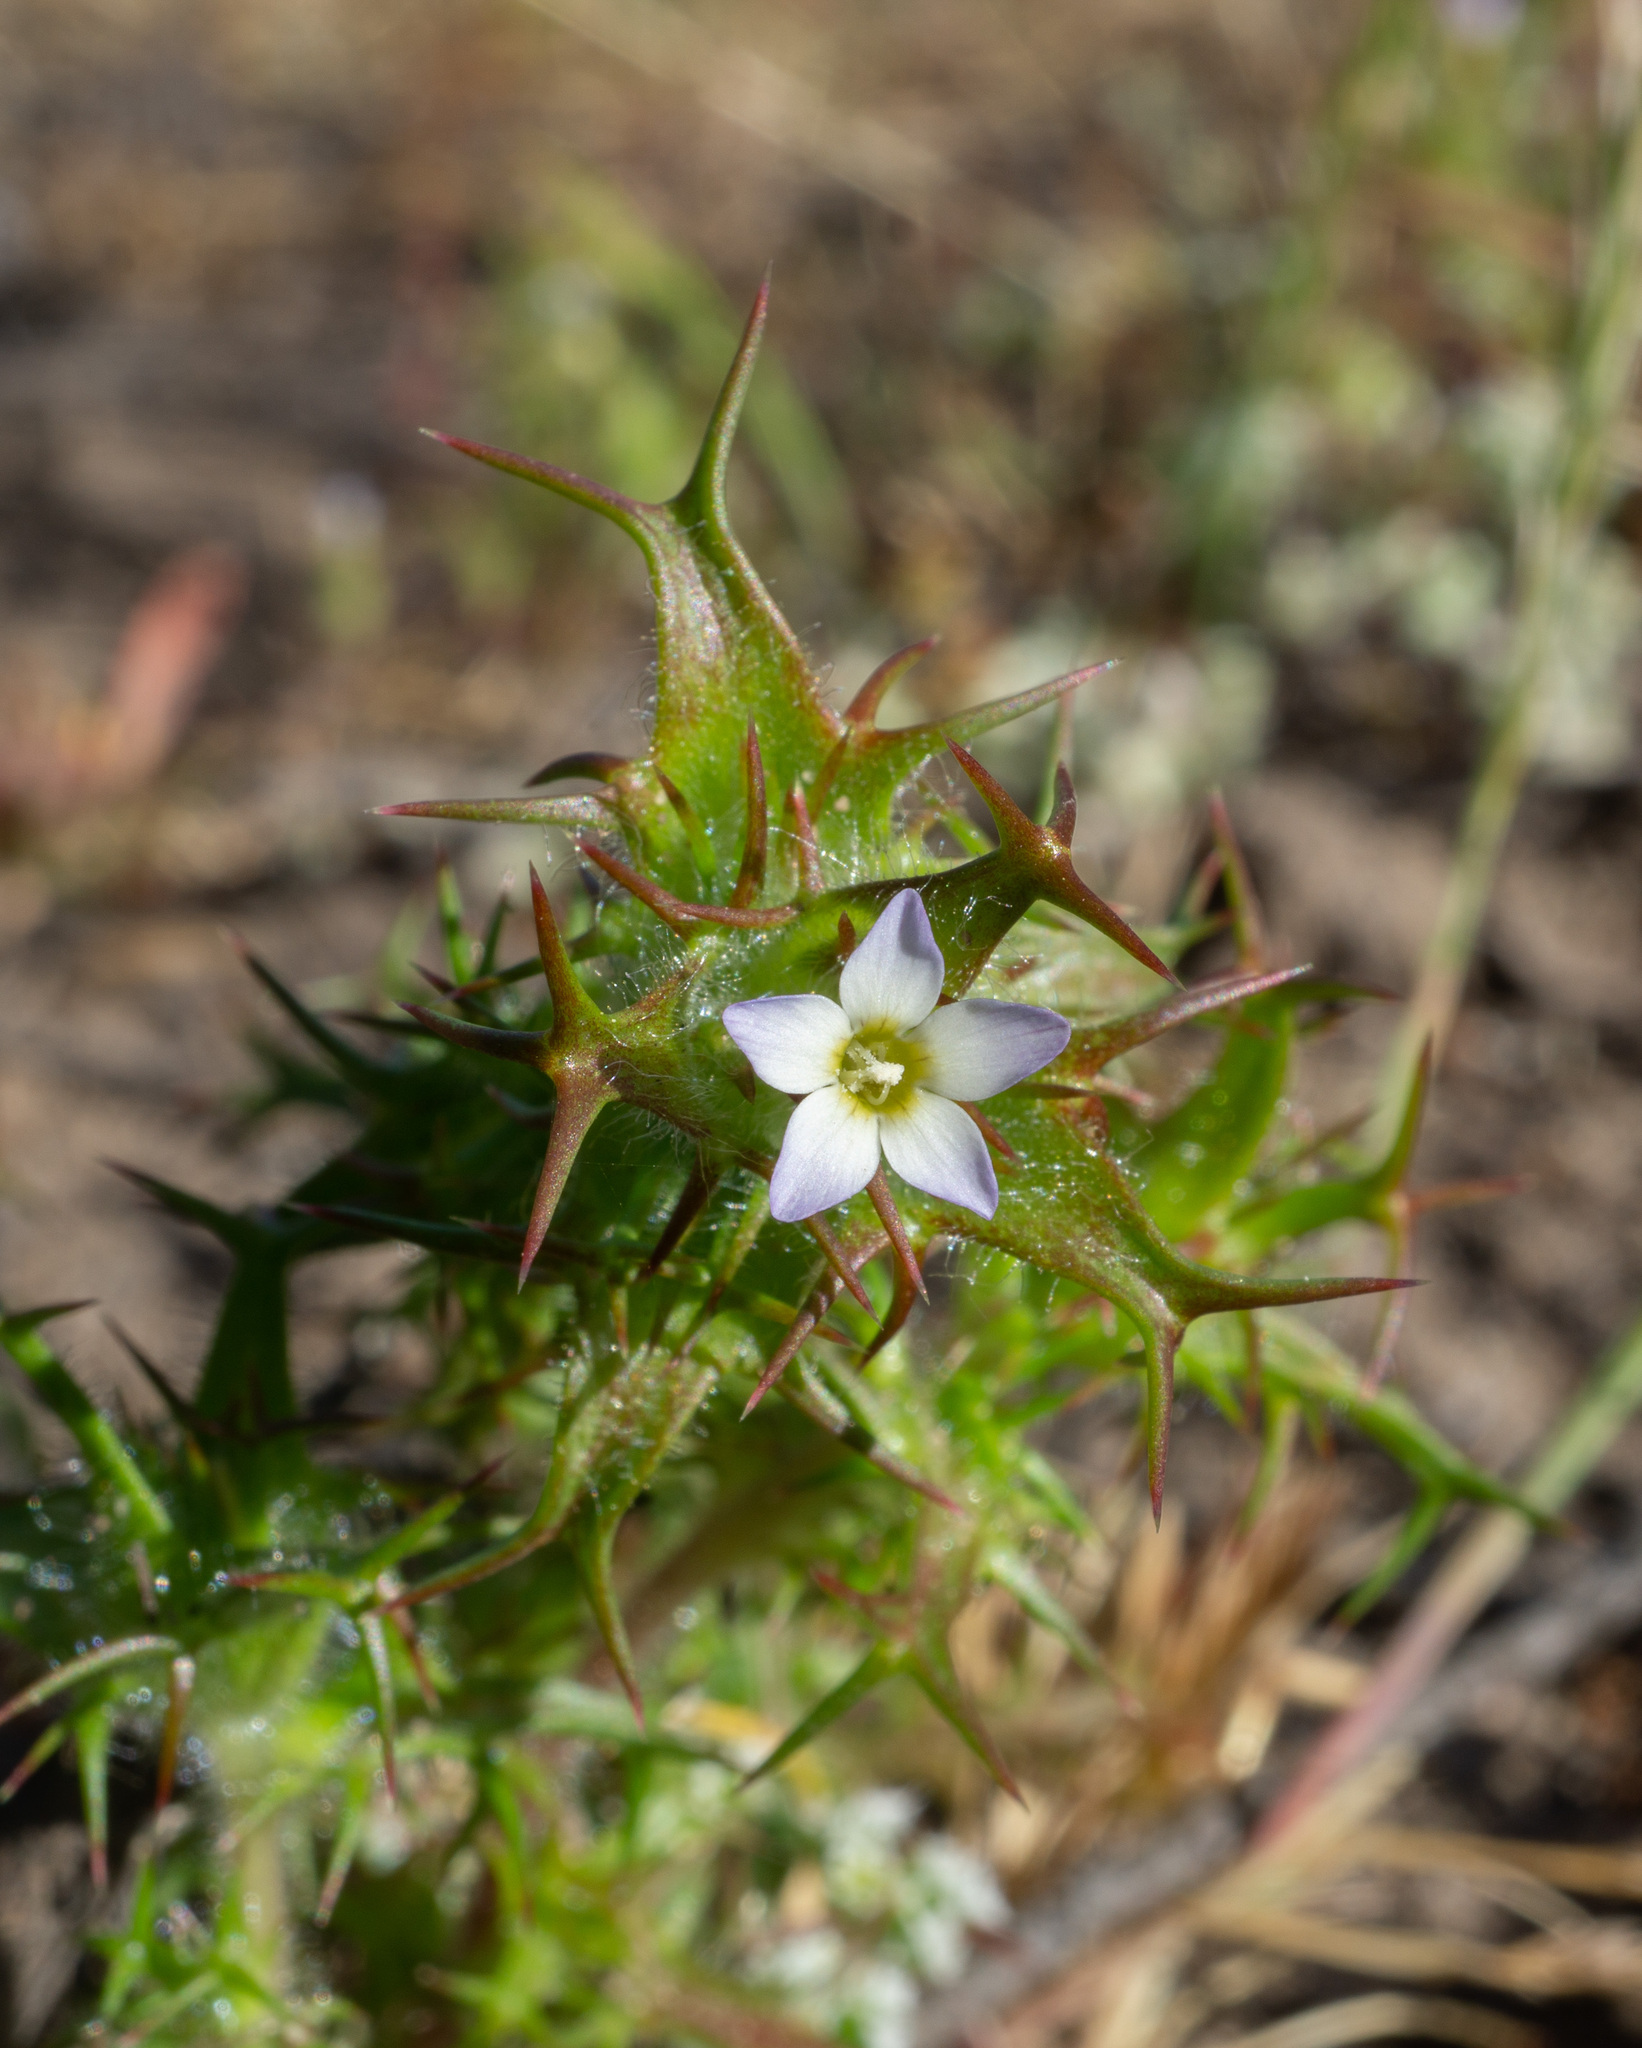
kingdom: Plantae
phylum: Tracheophyta
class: Magnoliopsida
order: Ericales
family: Polemoniaceae
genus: Navarretia
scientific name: Navarretia hamata
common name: Hooked navarretia
